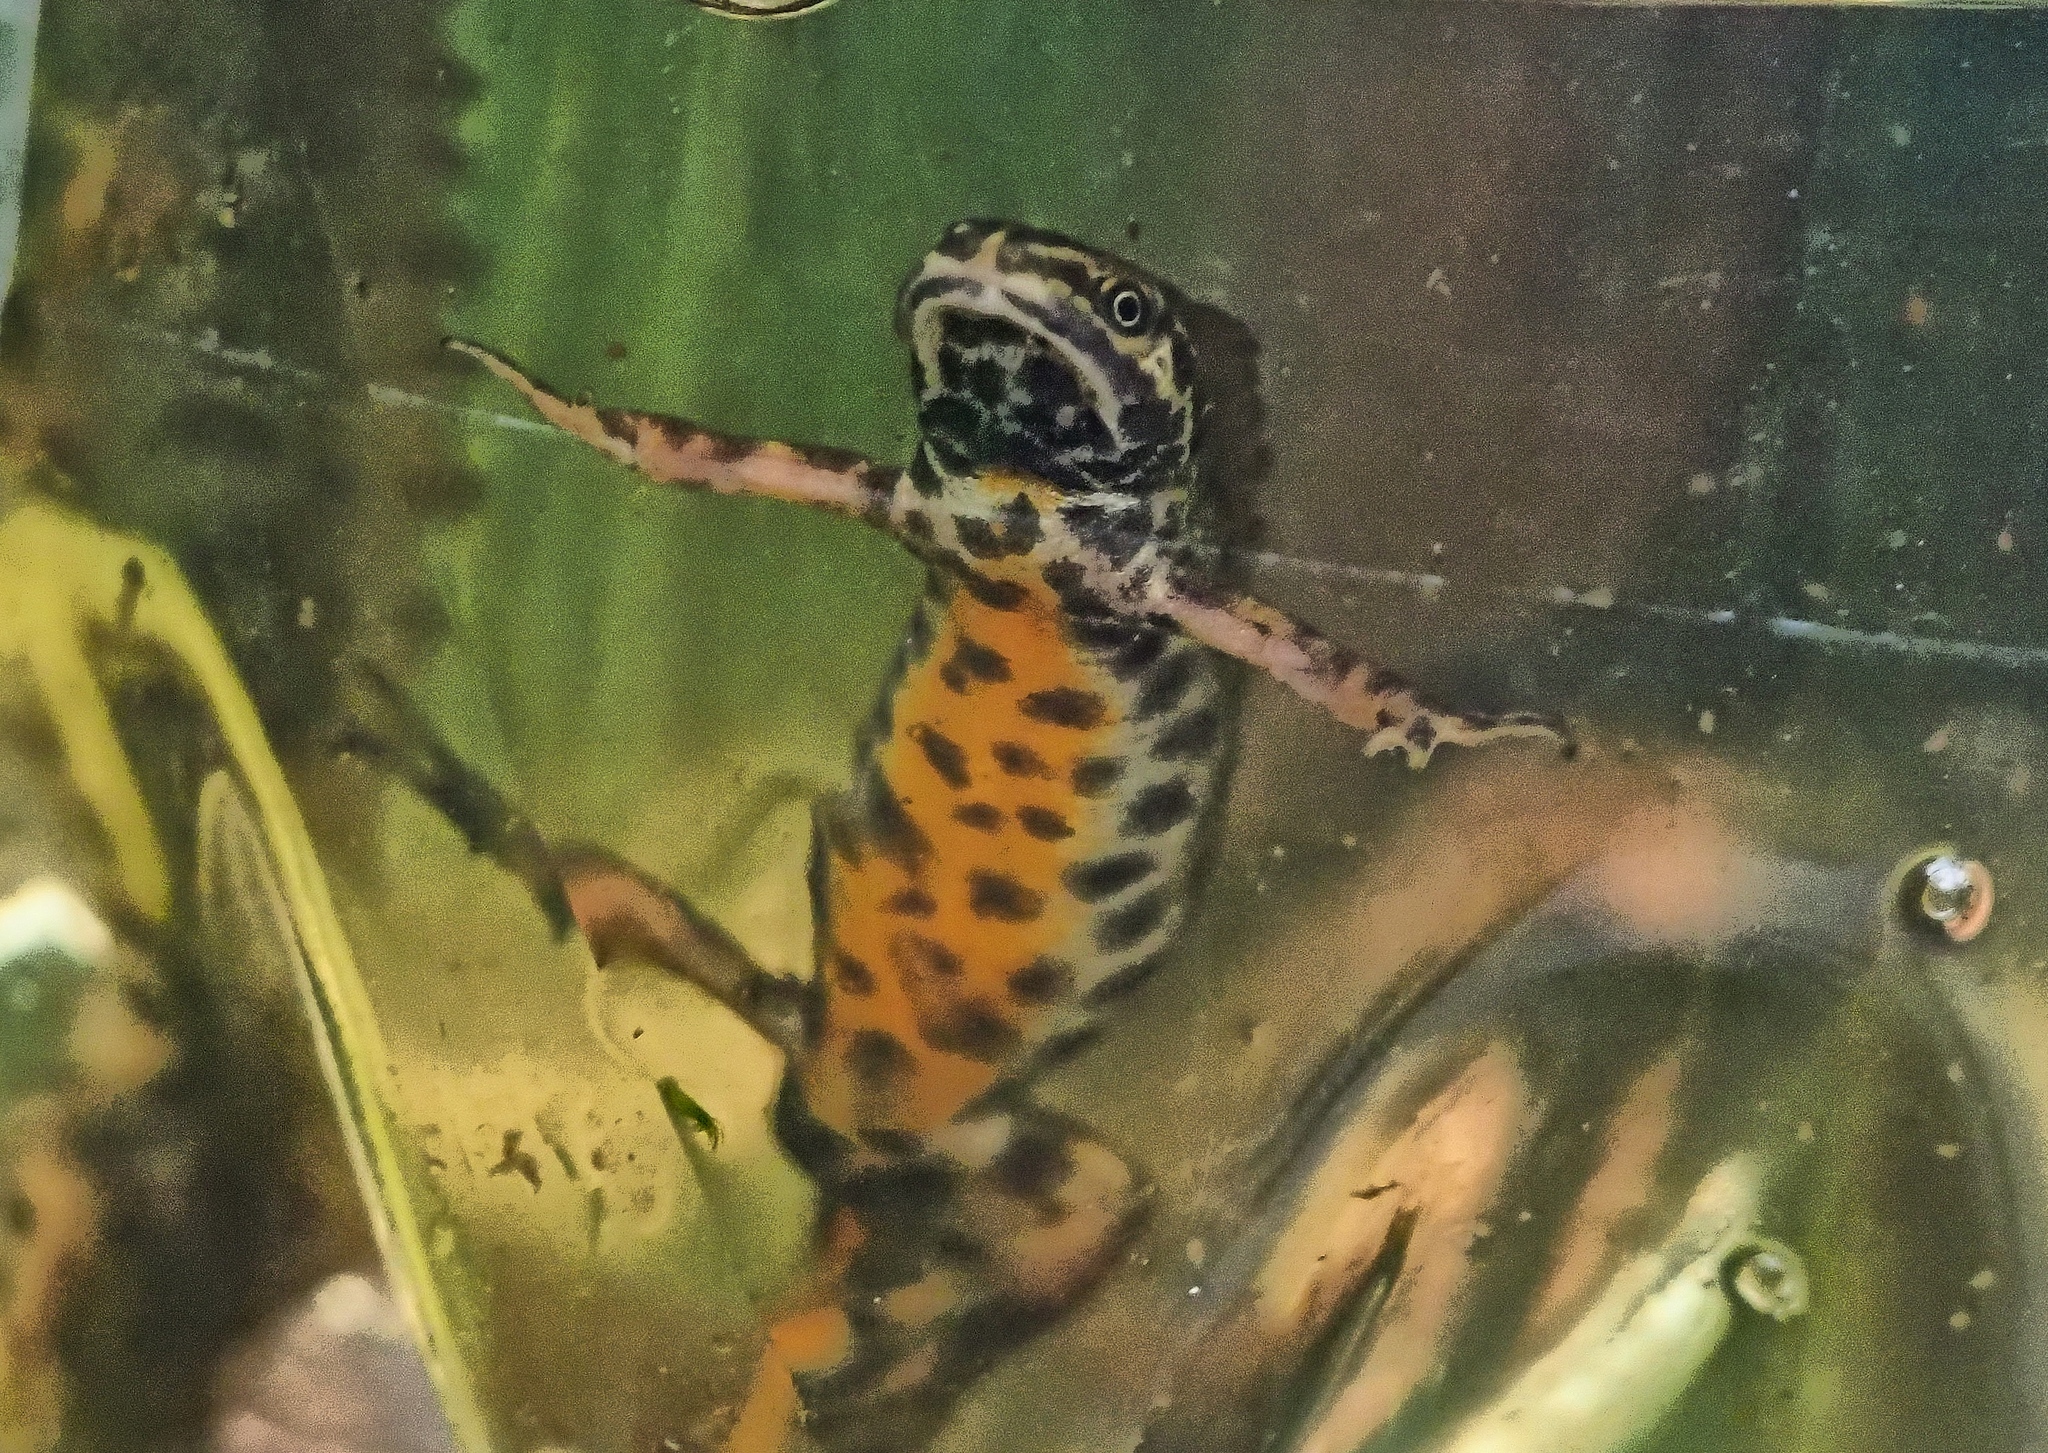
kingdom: Animalia
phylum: Chordata
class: Amphibia
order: Caudata
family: Salamandridae
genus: Lissotriton
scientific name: Lissotriton vulgaris
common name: Smooth newt
